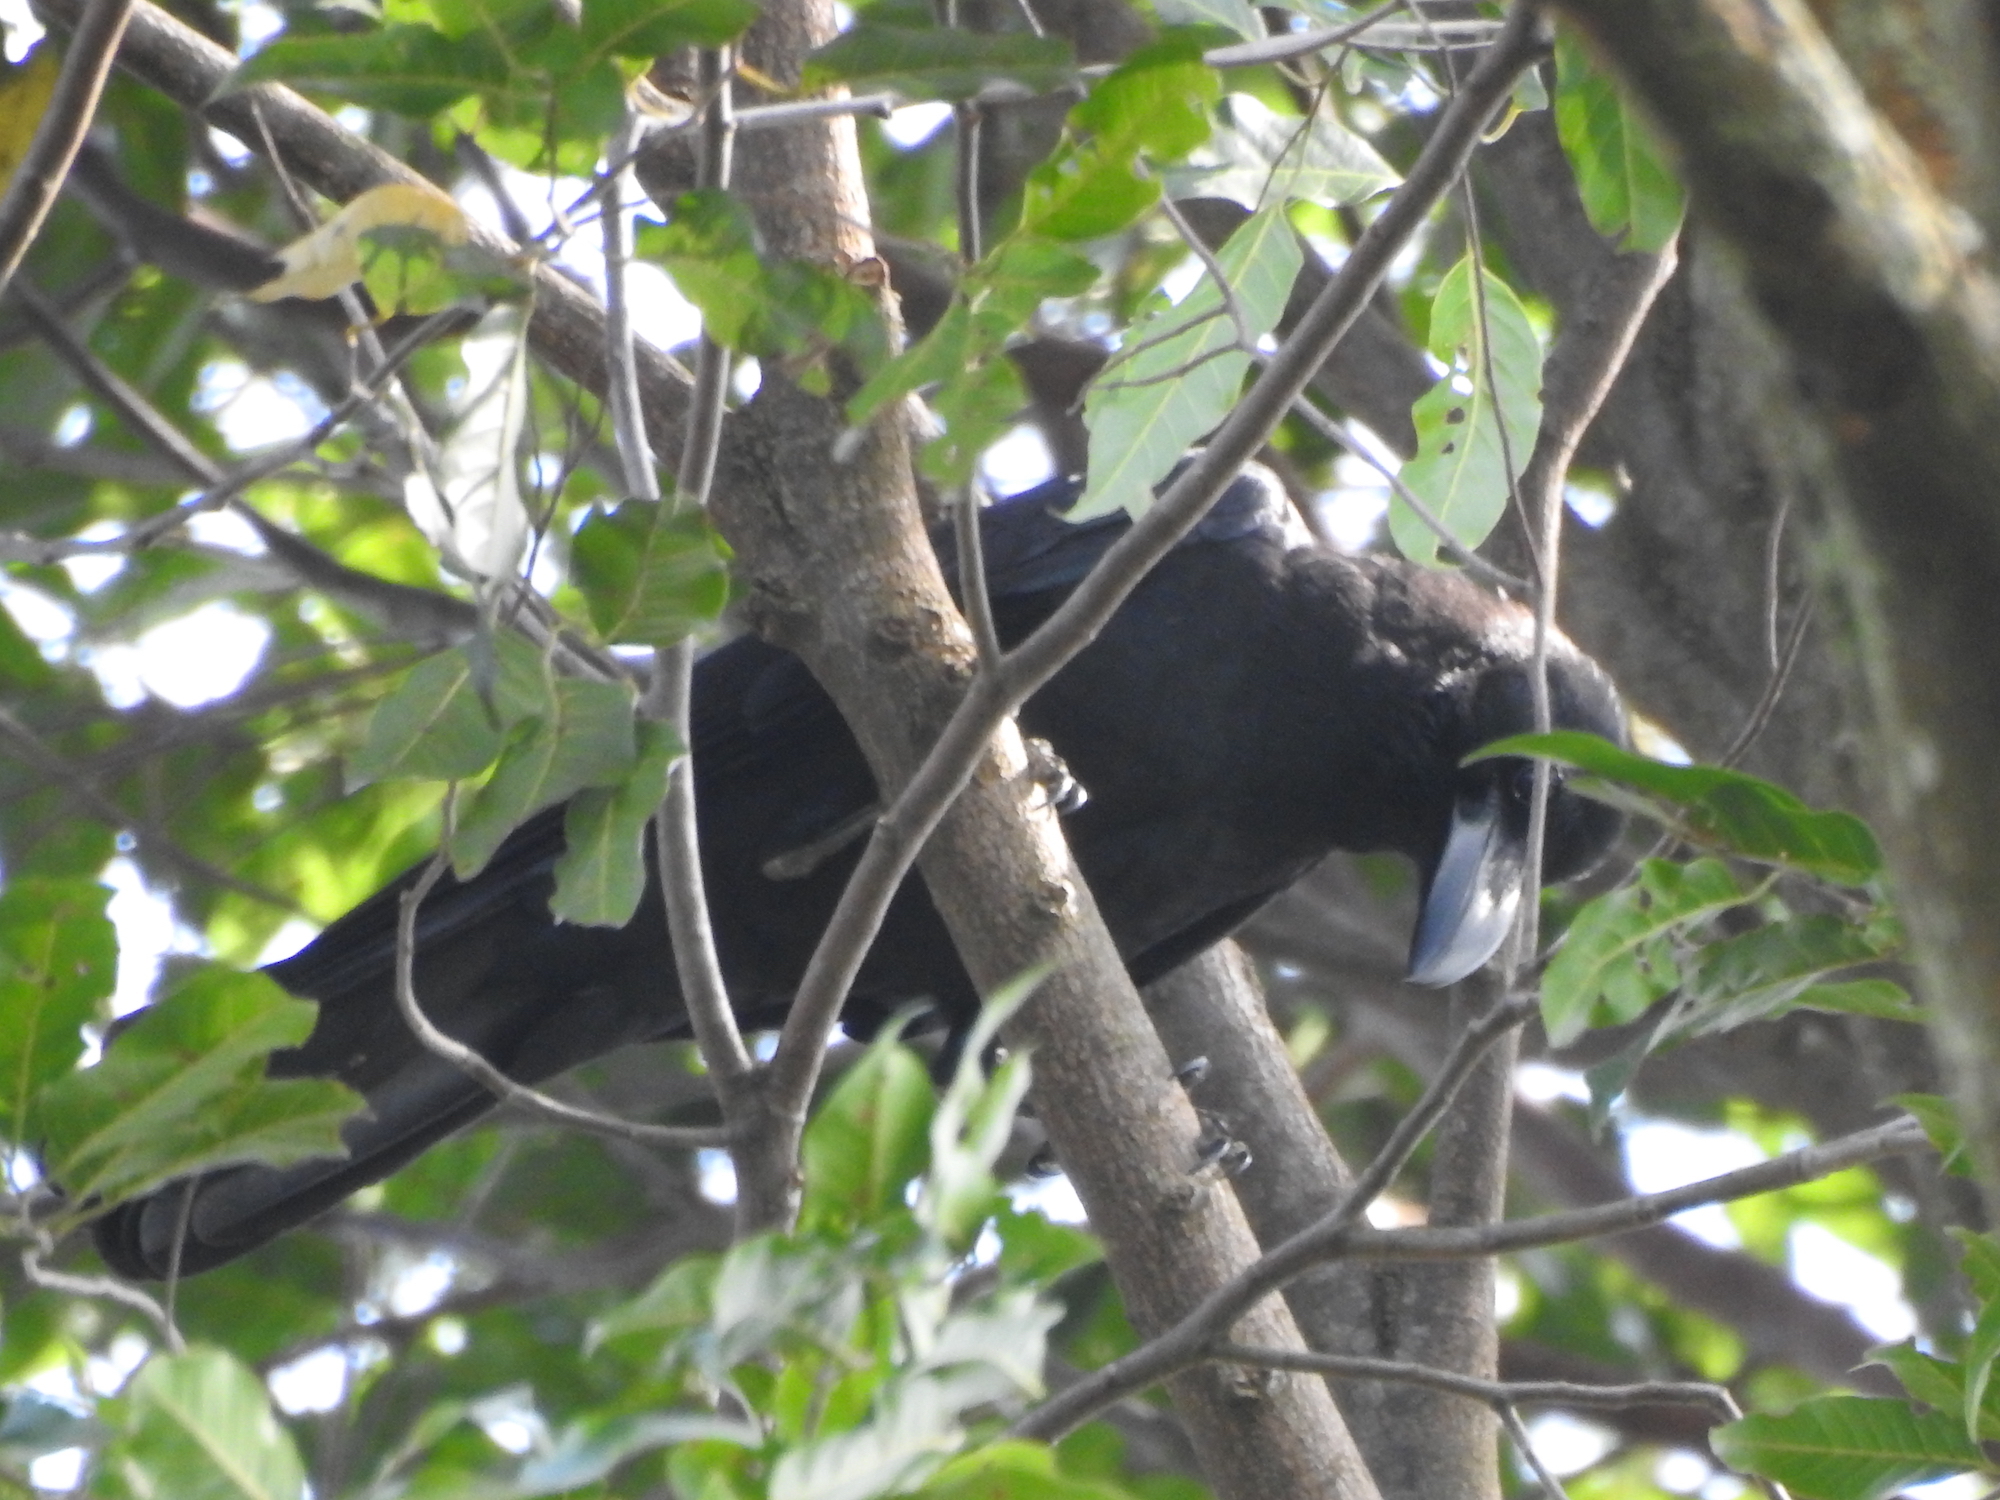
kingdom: Animalia
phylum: Chordata
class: Aves
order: Passeriformes
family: Corvidae
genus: Corvus
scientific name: Corvus macrorhynchos
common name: Large-billed crow
